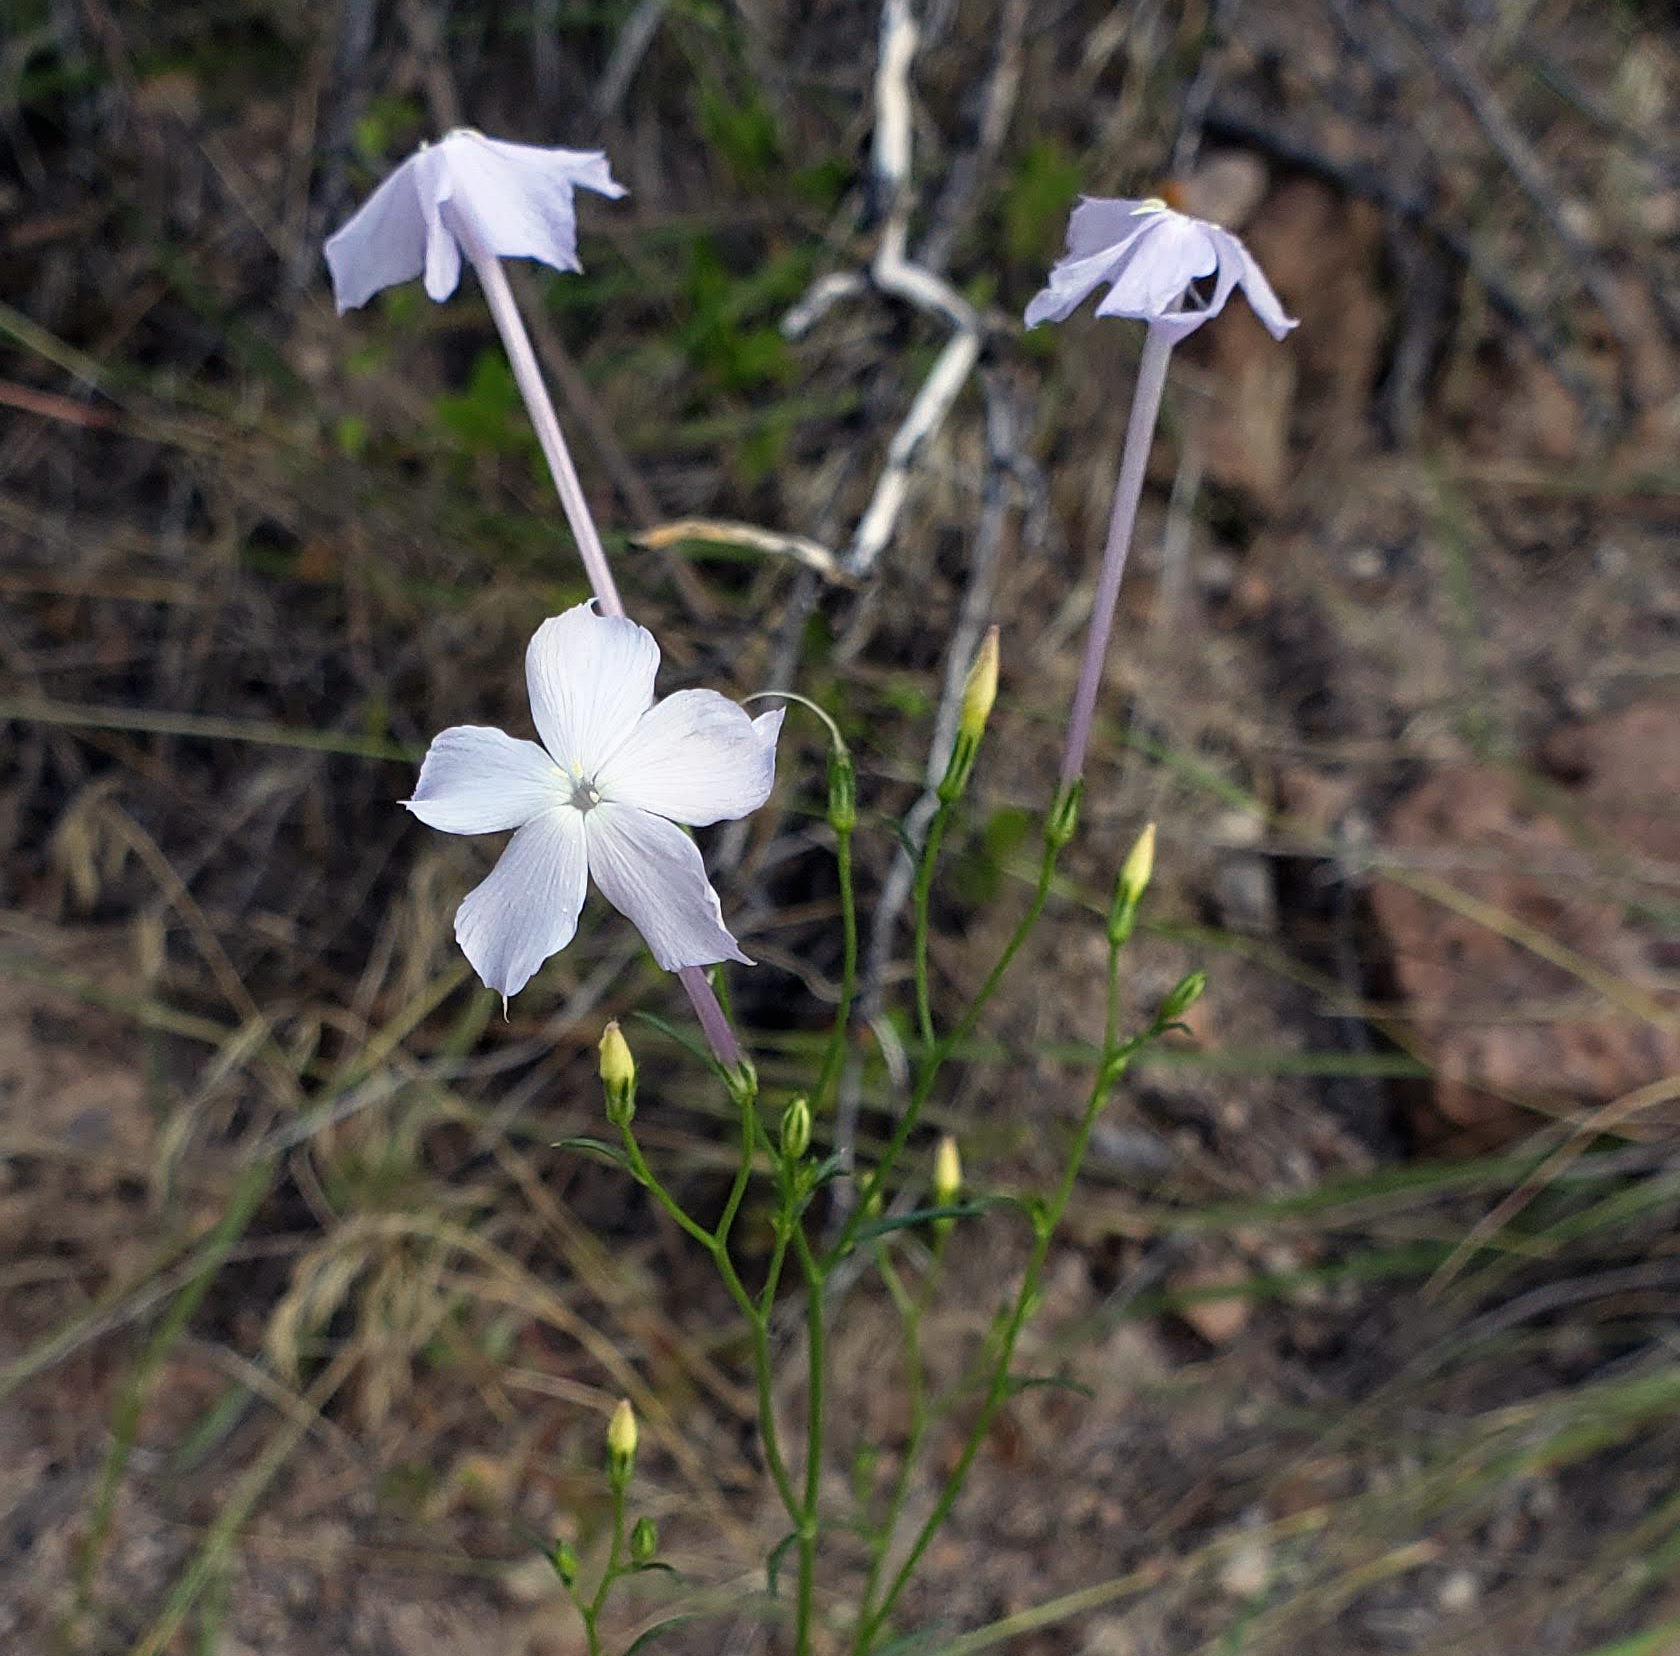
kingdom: Plantae
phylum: Tracheophyta
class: Magnoliopsida
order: Ericales
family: Polemoniaceae
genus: Ipomopsis
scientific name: Ipomopsis longiflora
